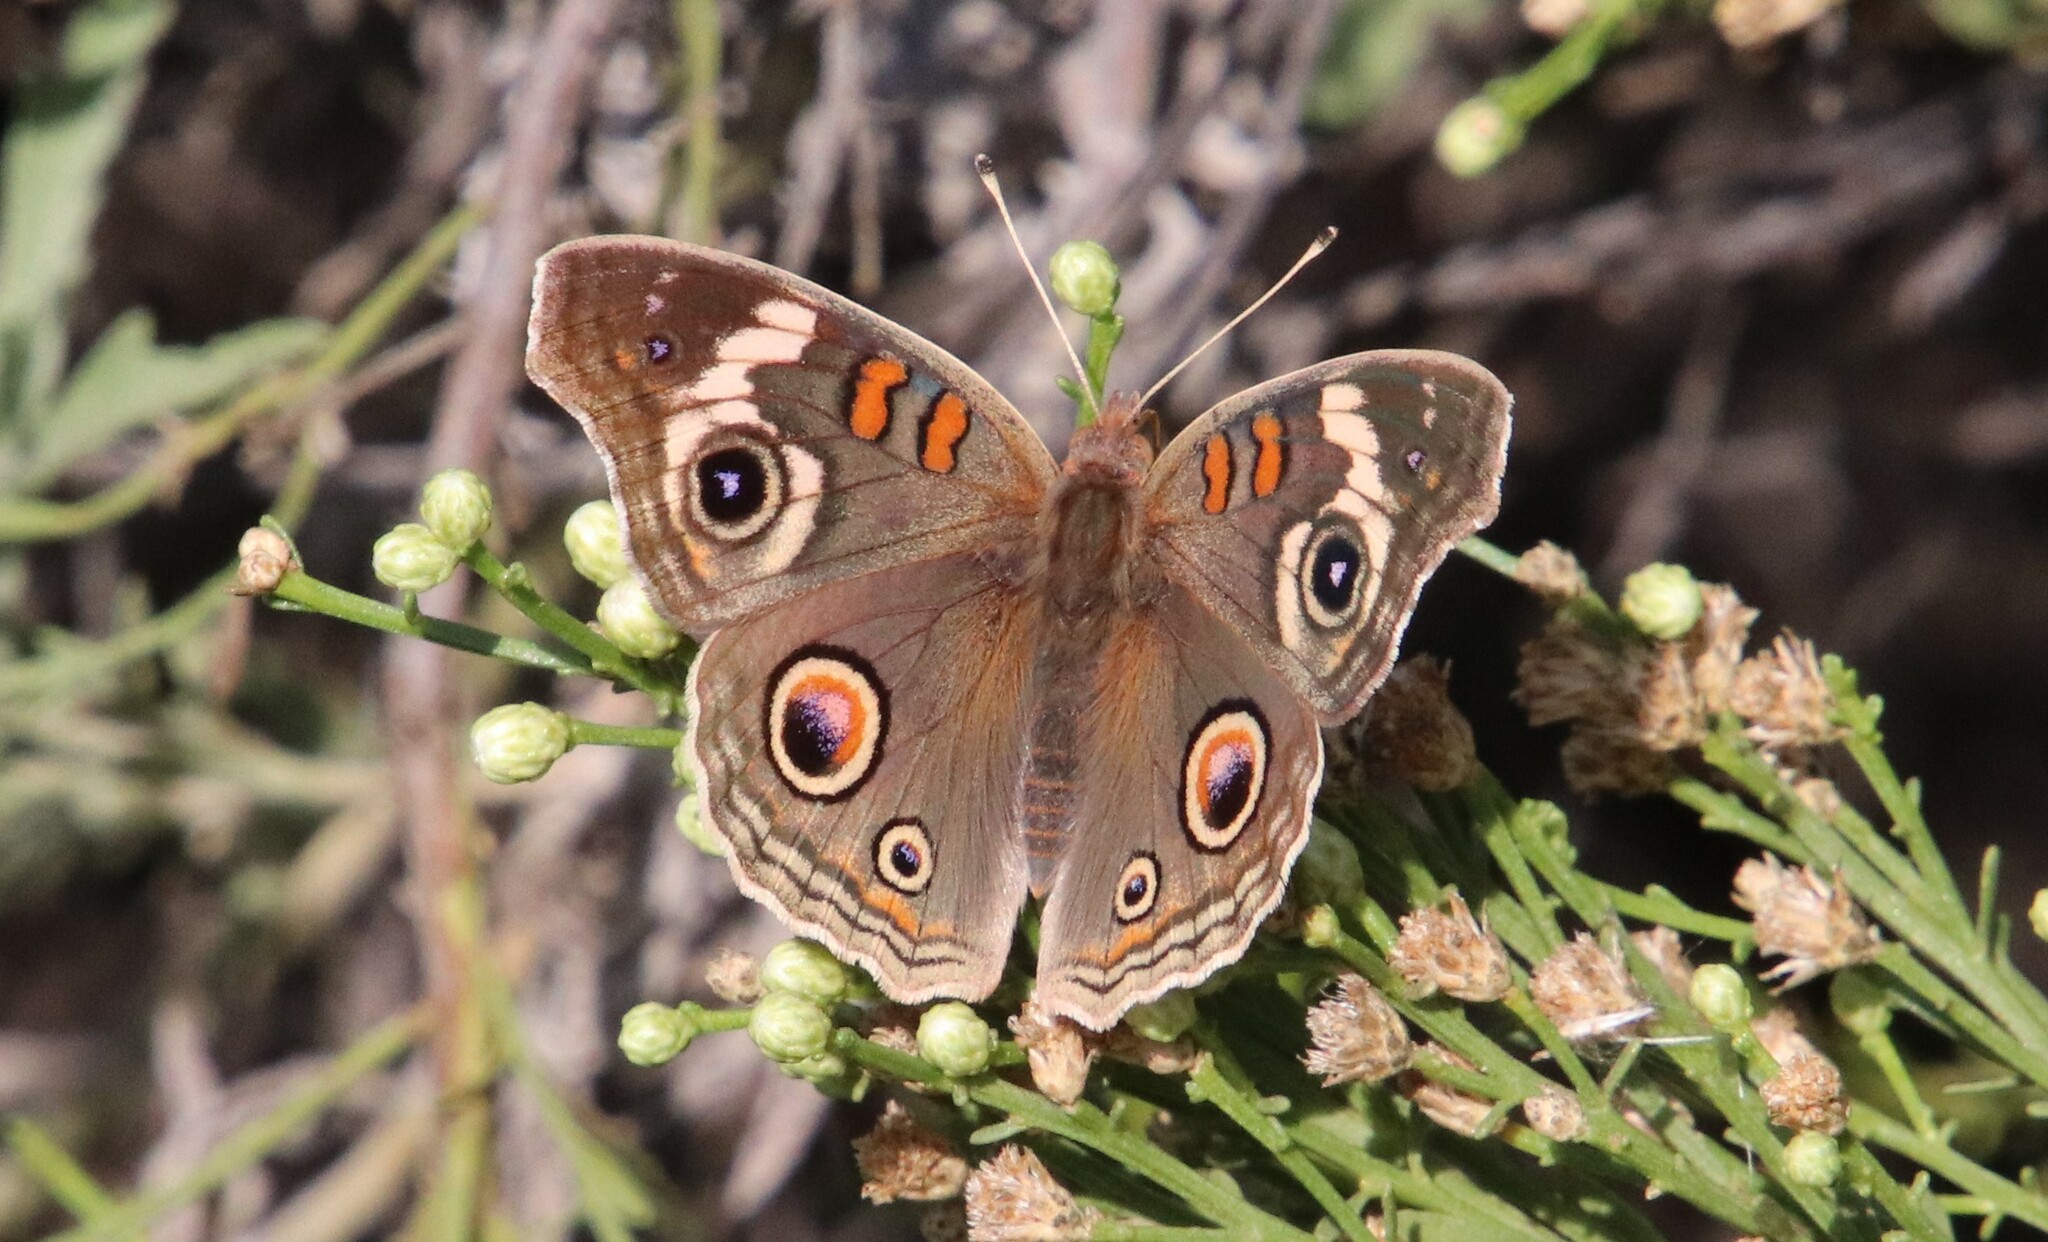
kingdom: Animalia
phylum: Arthropoda
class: Insecta
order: Lepidoptera
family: Nymphalidae
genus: Junonia
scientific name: Junonia grisea
